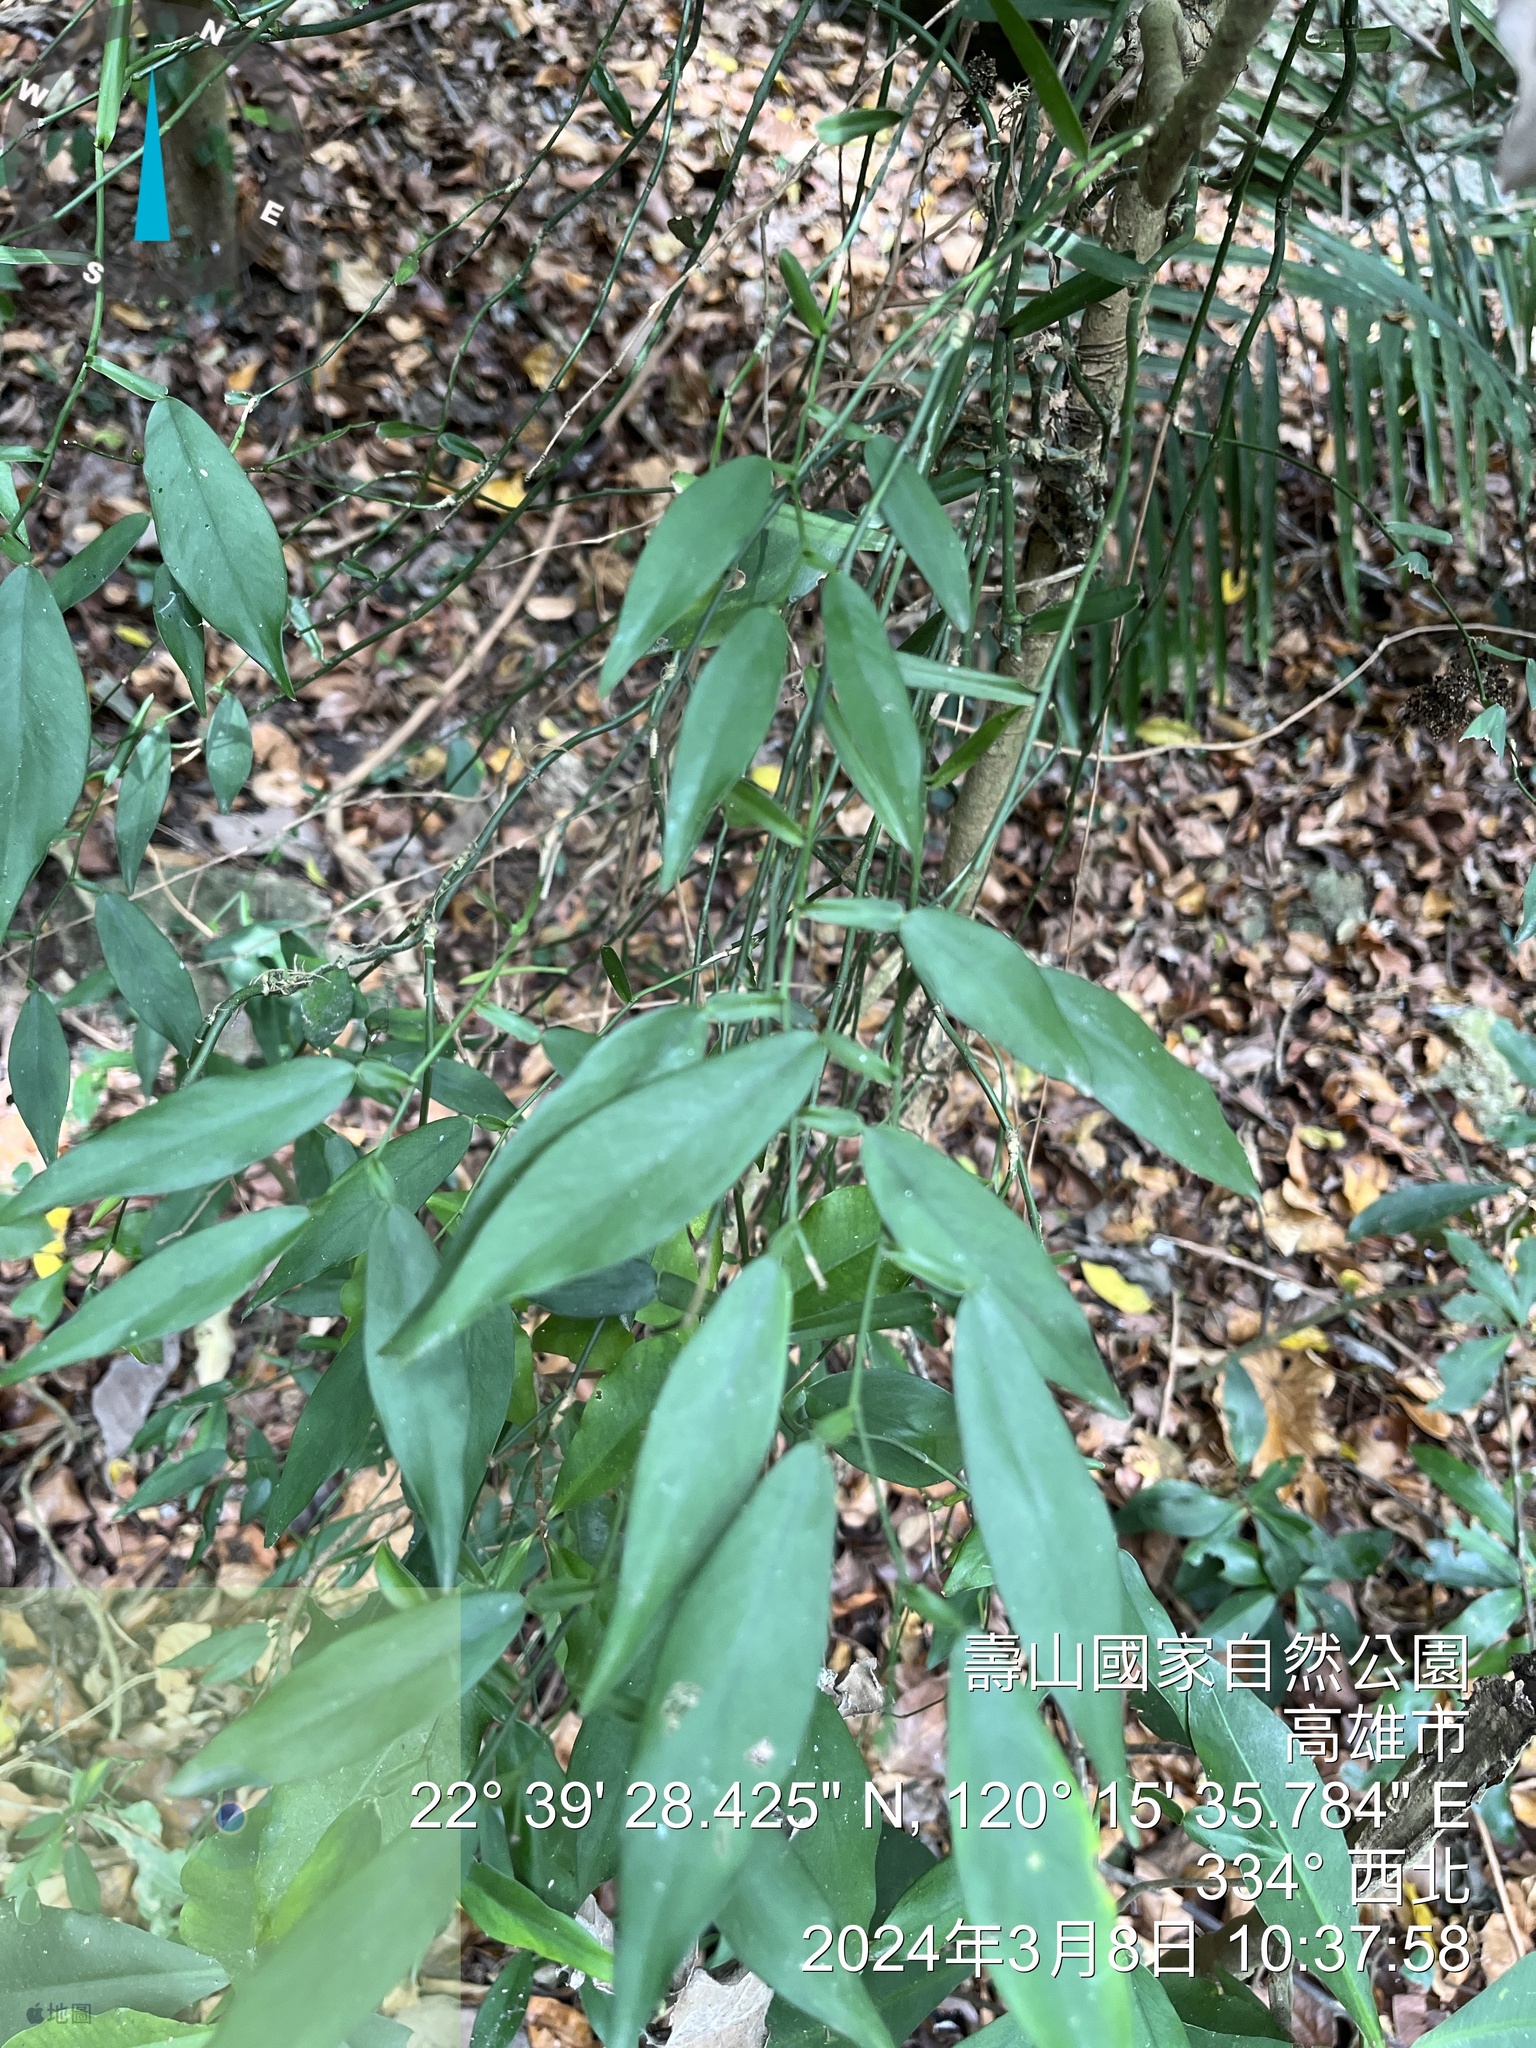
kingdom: Plantae
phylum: Tracheophyta
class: Liliopsida
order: Alismatales
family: Araceae
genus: Pothos
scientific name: Pothos chinensis
